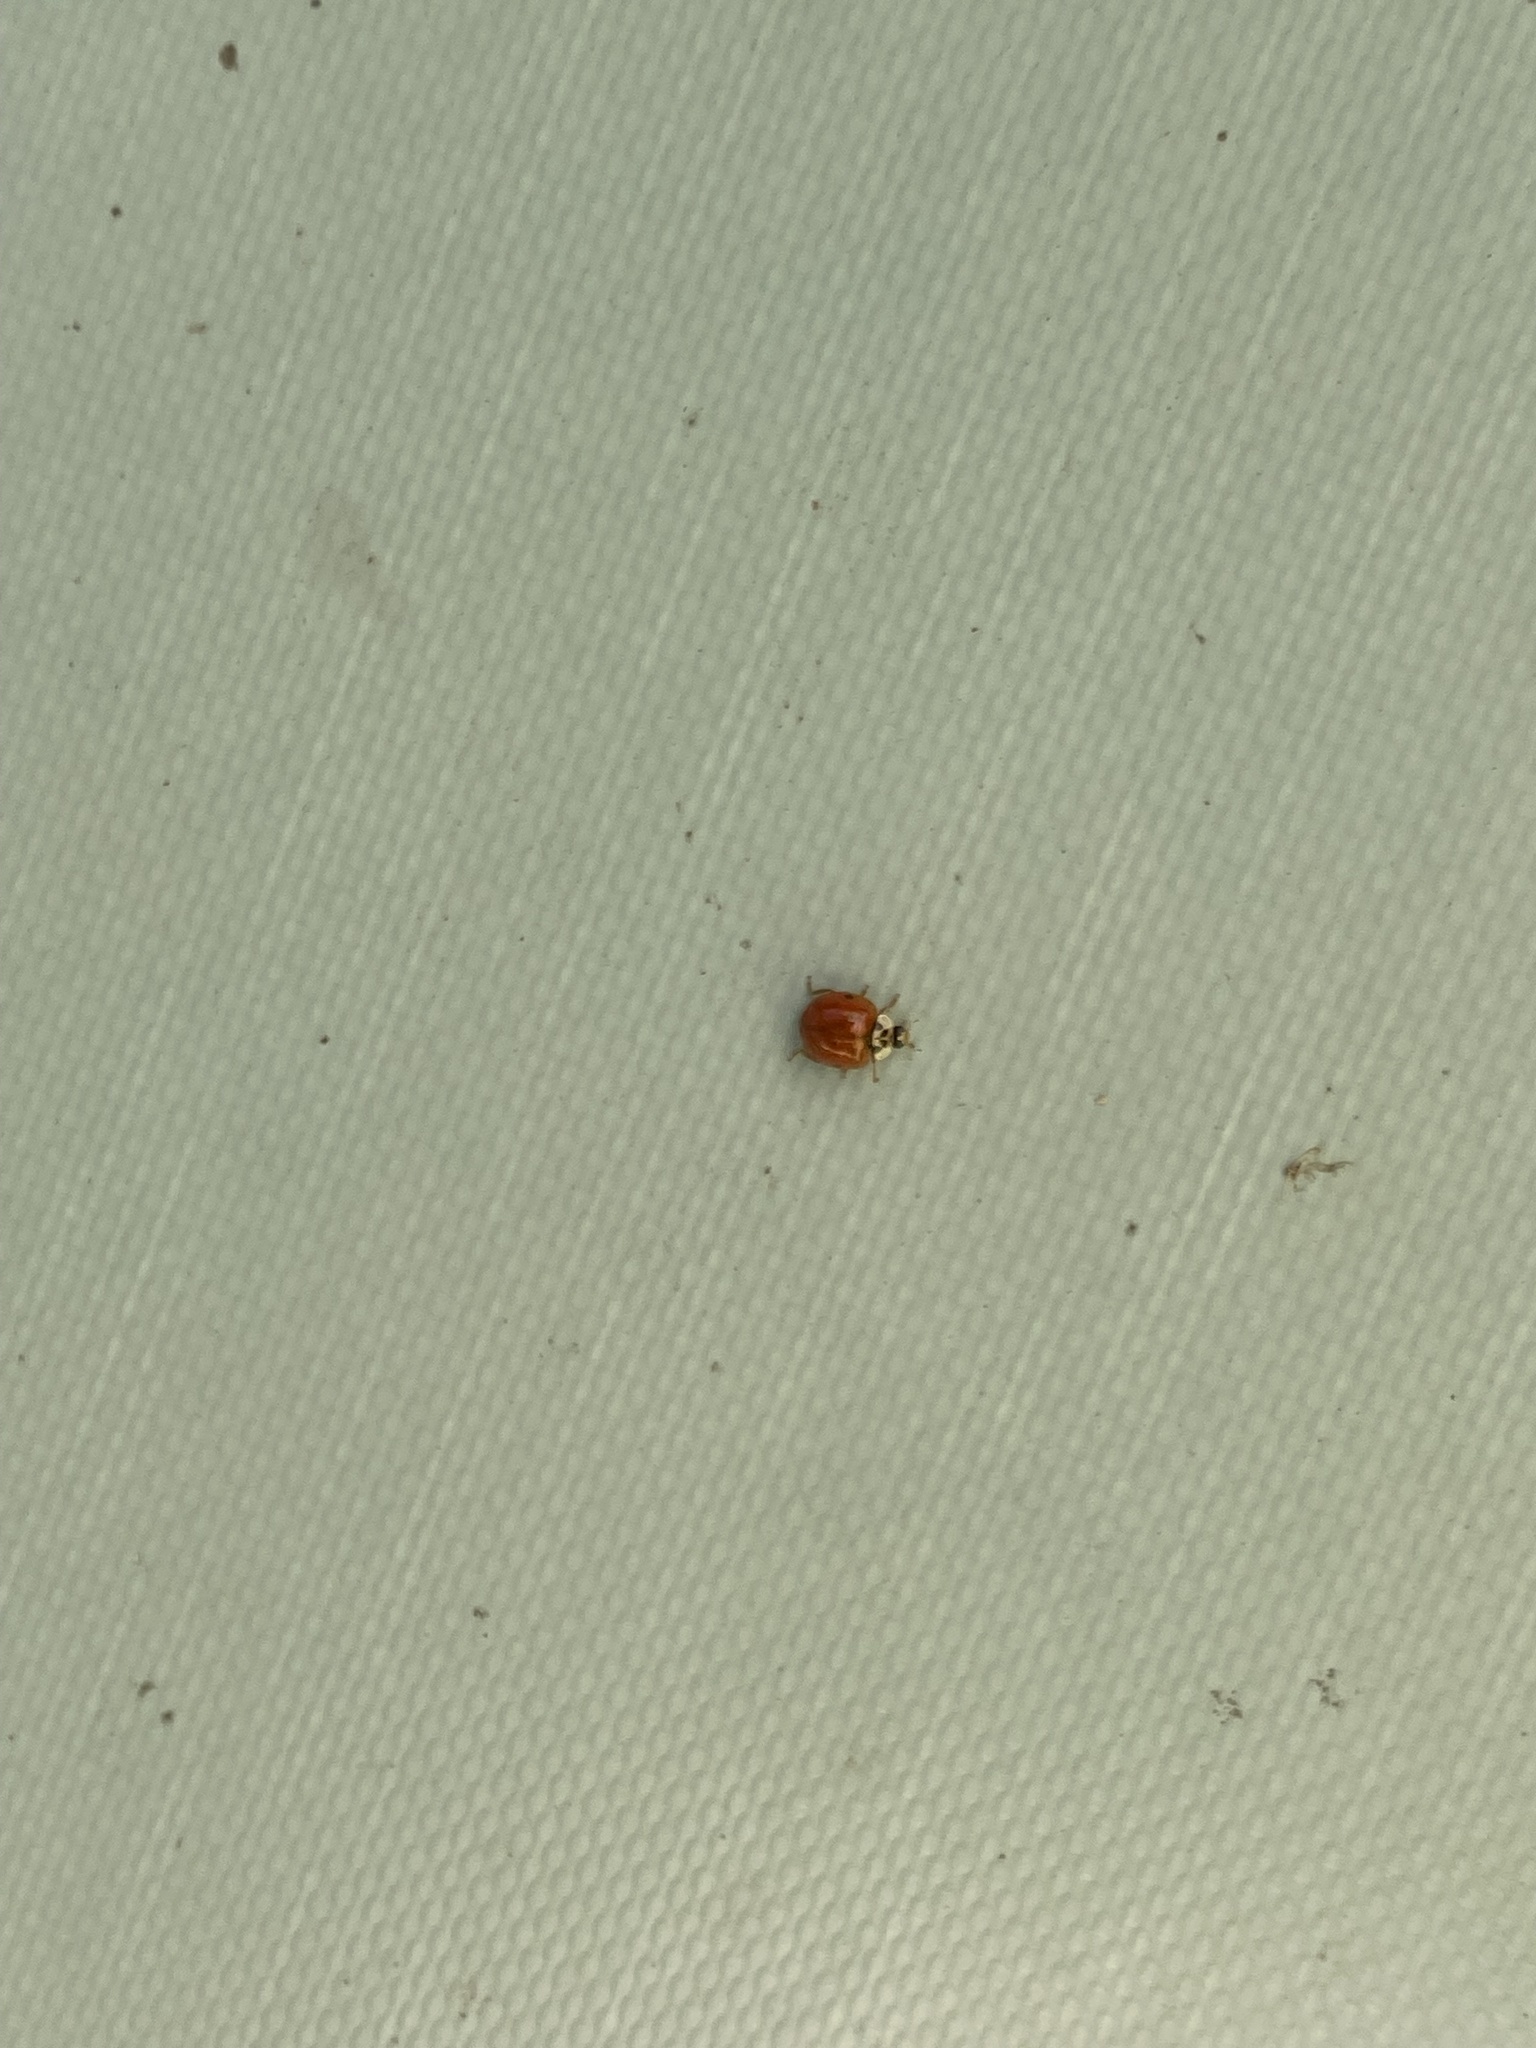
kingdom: Animalia
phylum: Arthropoda
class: Insecta
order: Coleoptera
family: Coccinellidae
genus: Harmonia
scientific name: Harmonia axyridis
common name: Harlequin ladybird
